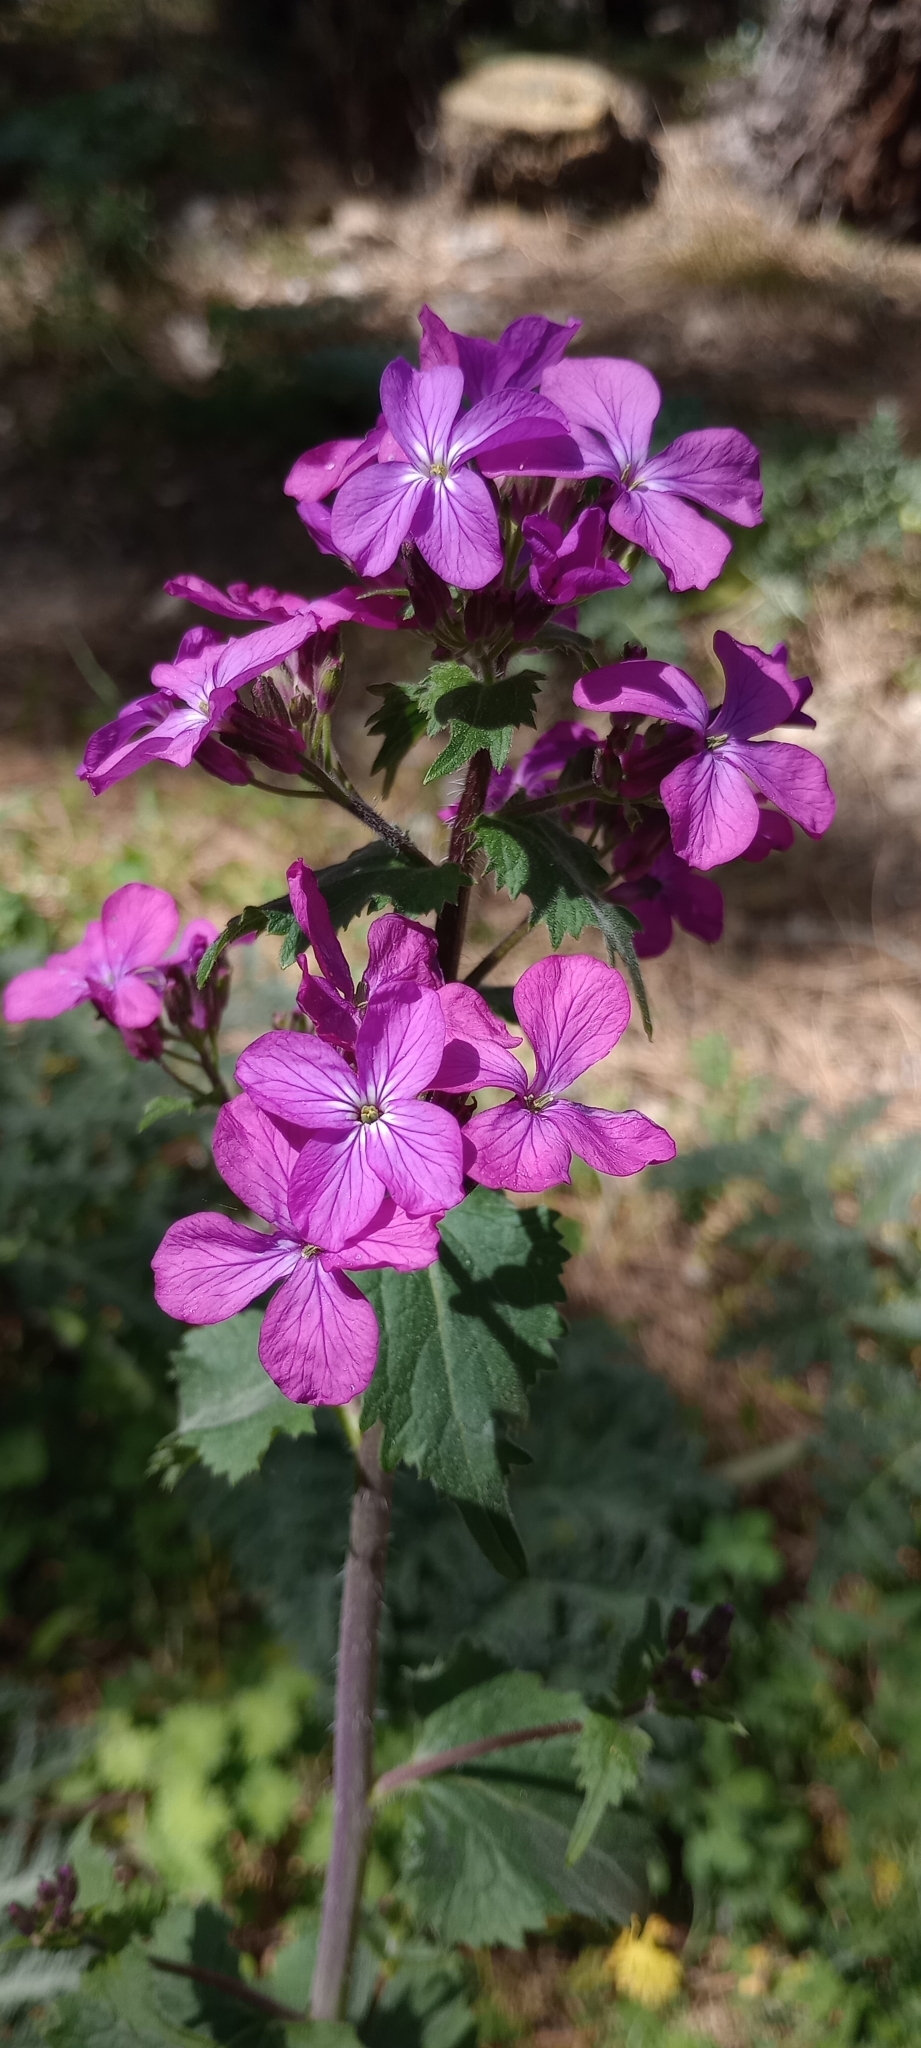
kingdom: Plantae
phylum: Tracheophyta
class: Magnoliopsida
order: Brassicales
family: Brassicaceae
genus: Lunaria
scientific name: Lunaria annua
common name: Honesty
